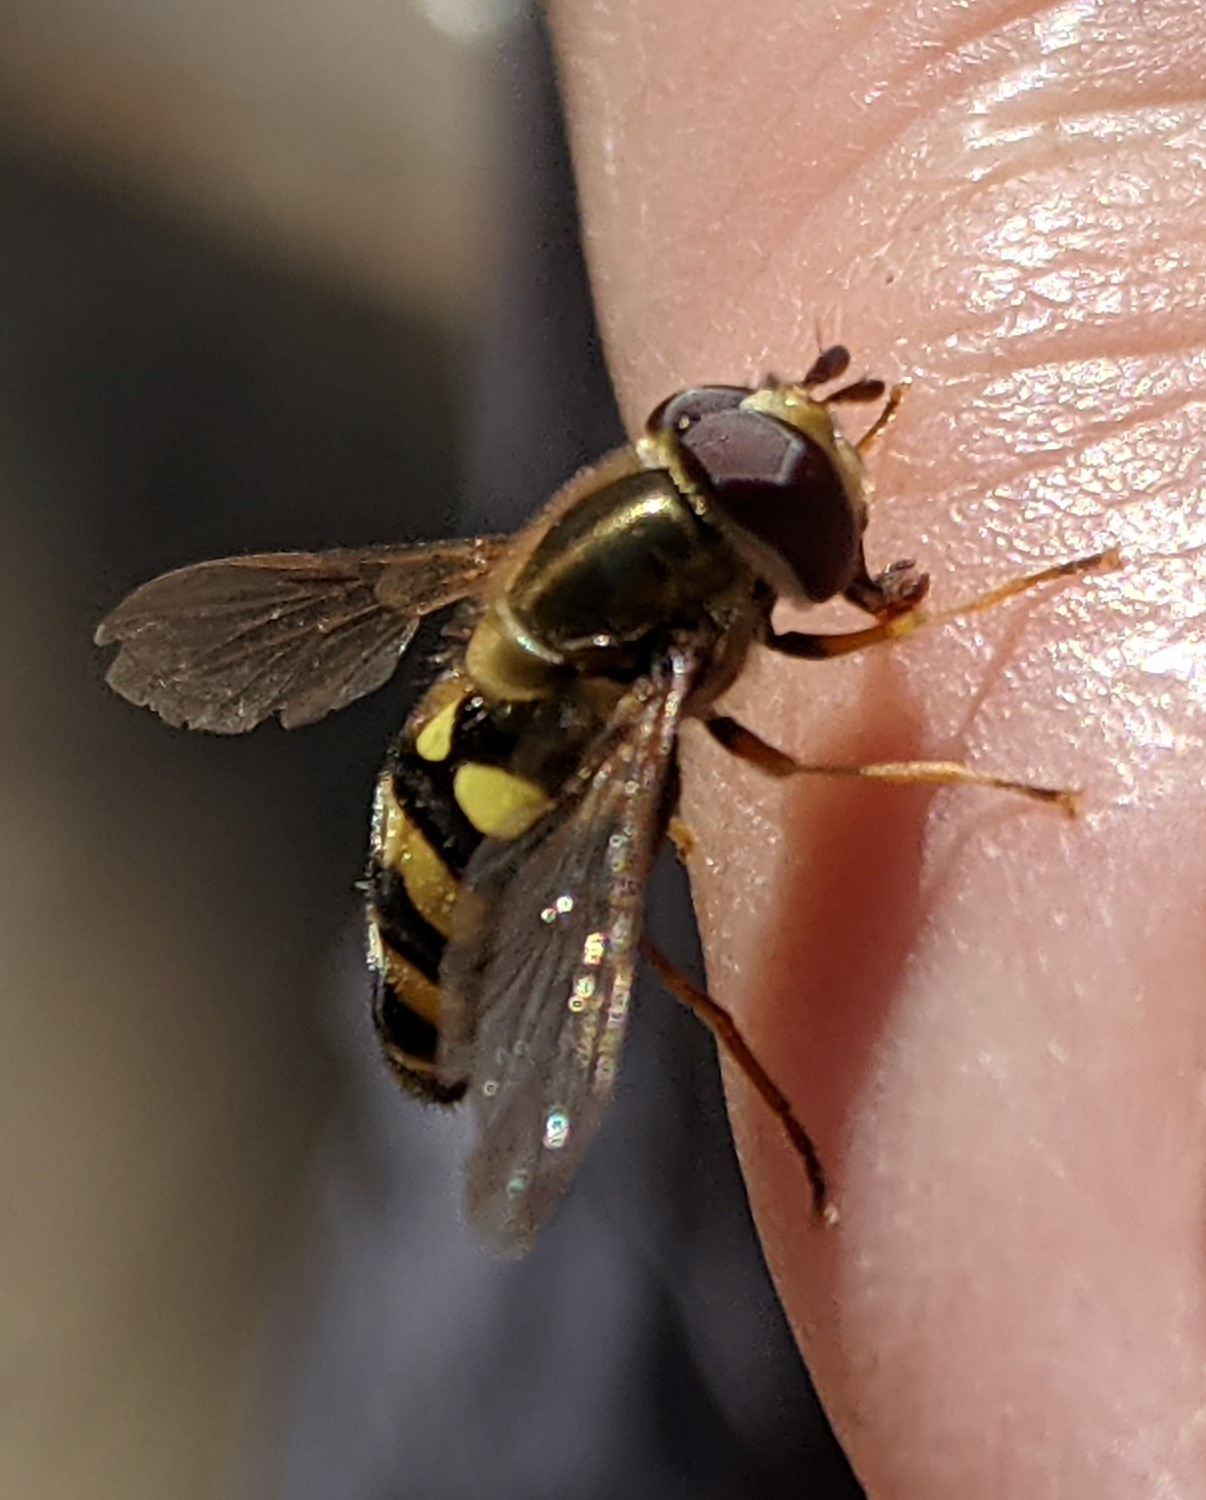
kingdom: Animalia
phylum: Arthropoda
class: Insecta
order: Diptera
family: Syrphidae
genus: Eupeodes
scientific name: Eupeodes fumipennis
